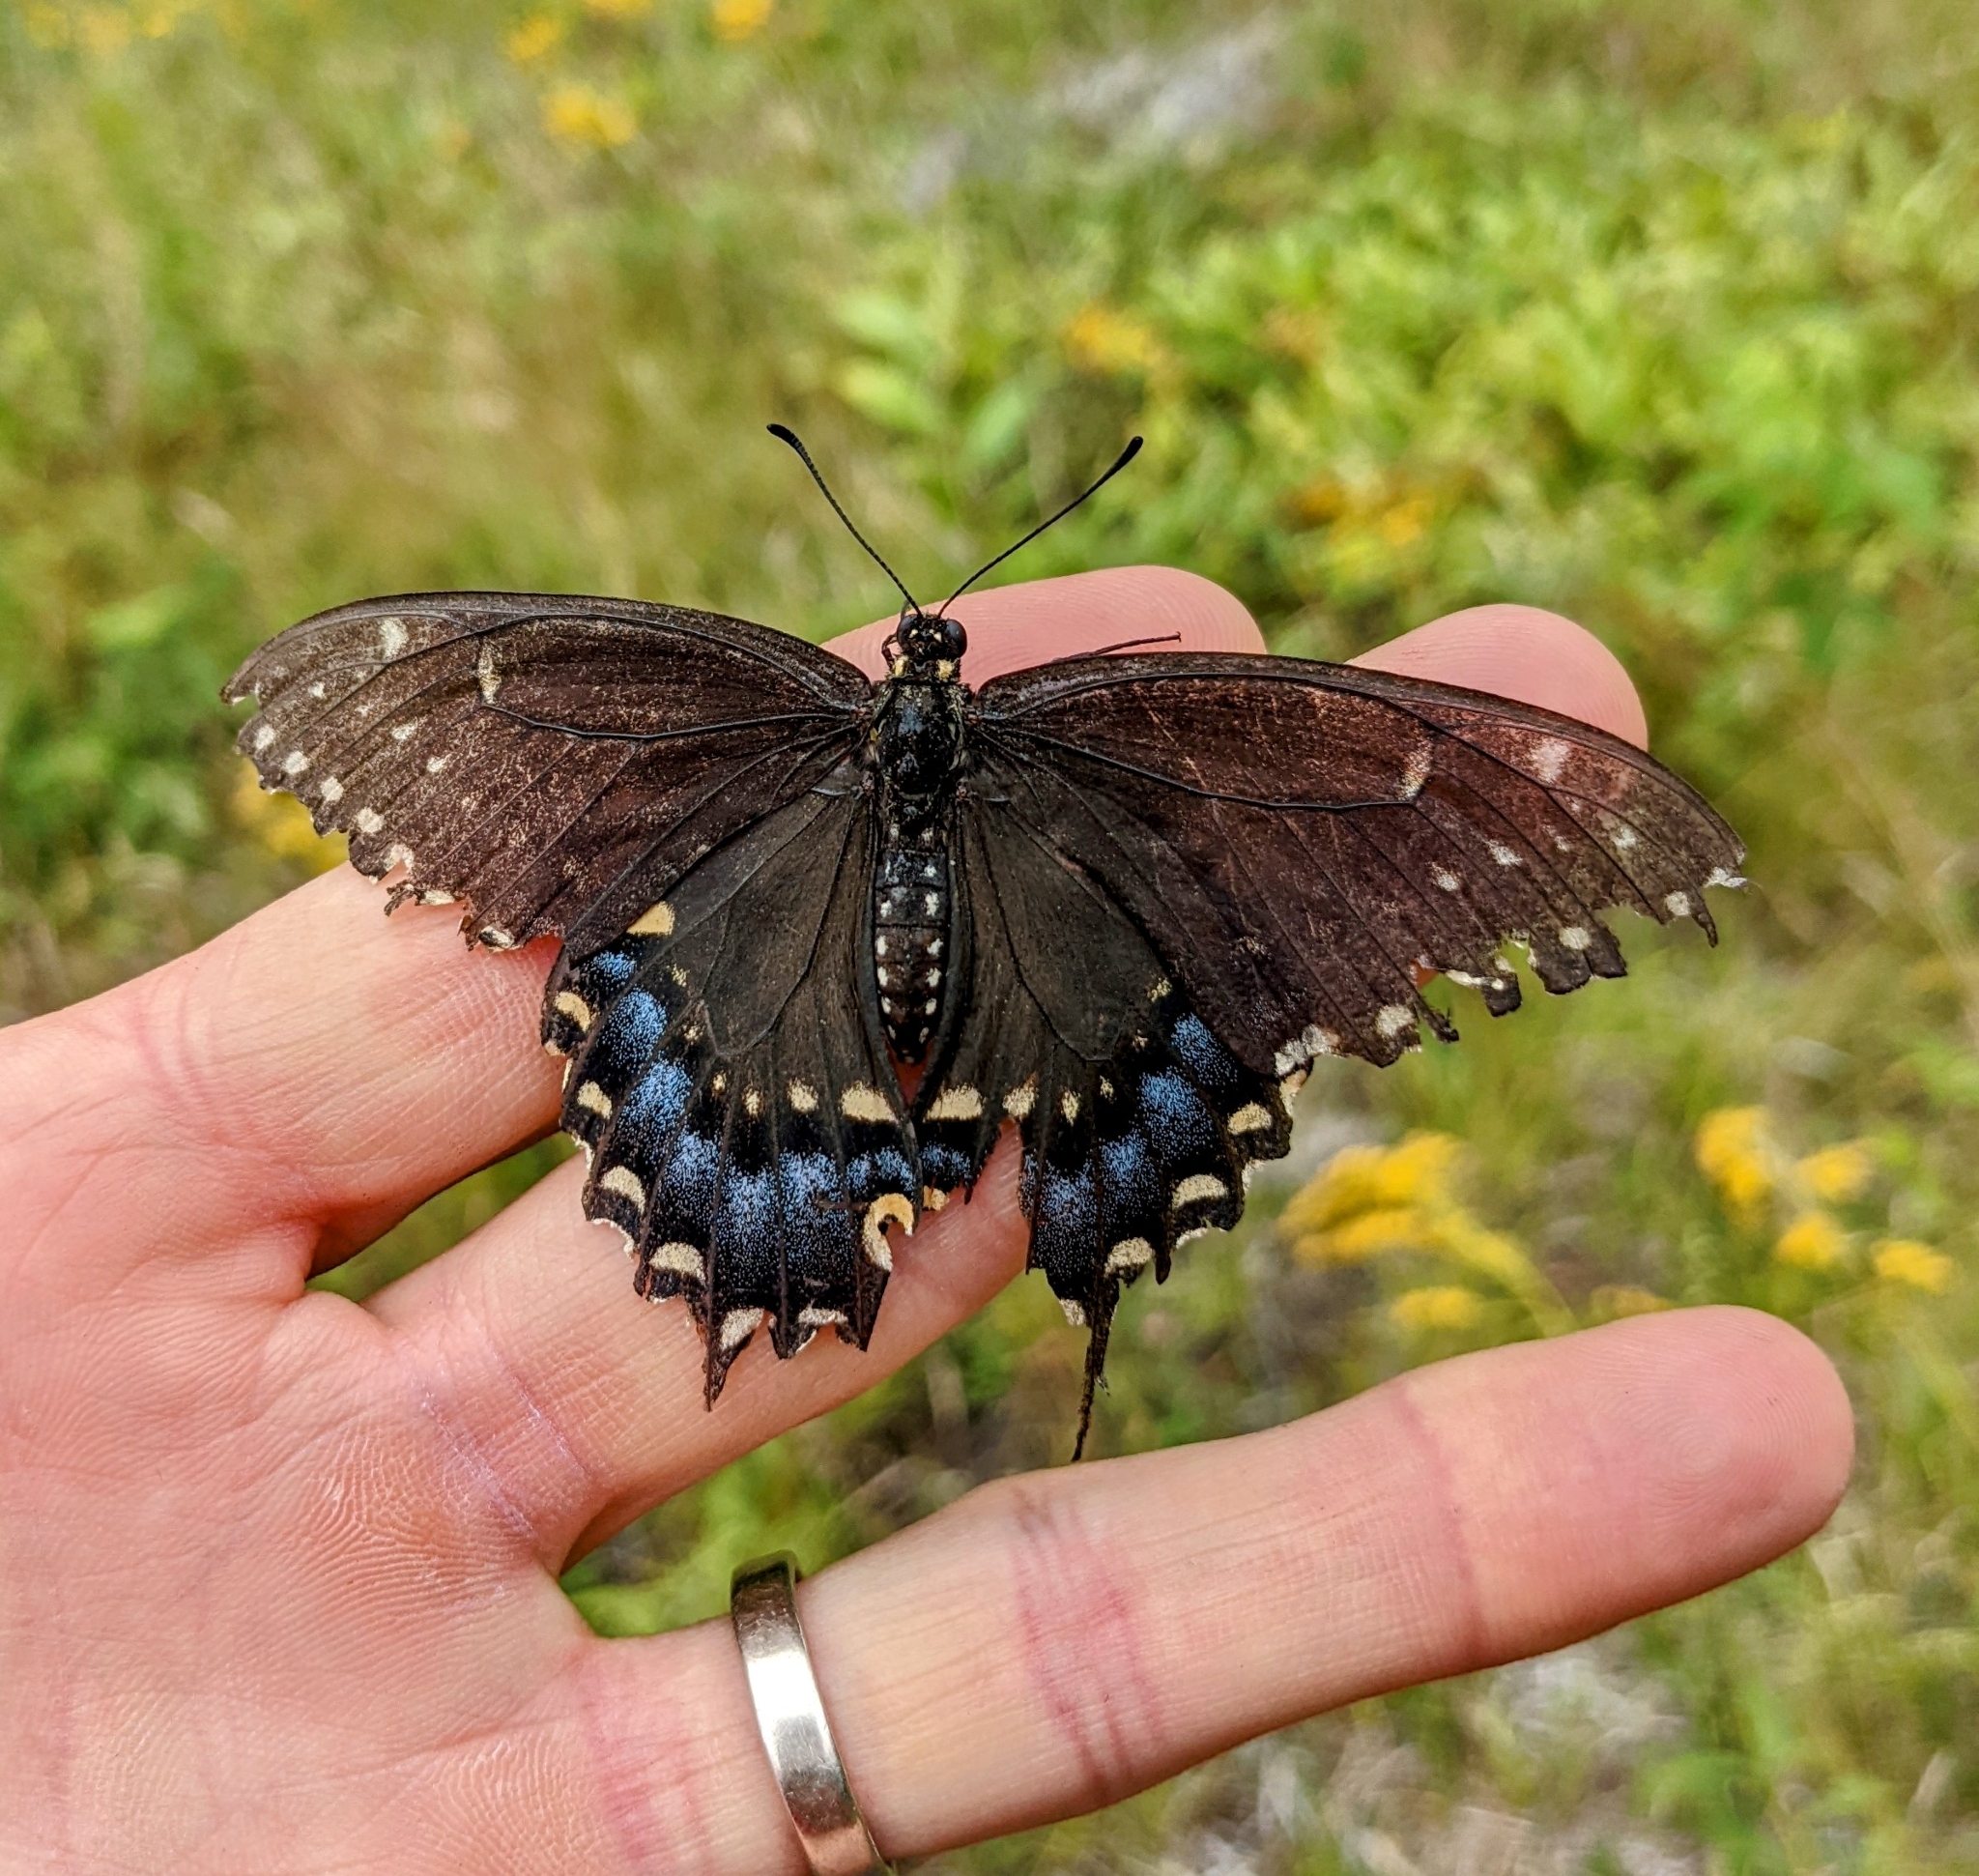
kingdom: Animalia
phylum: Arthropoda
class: Insecta
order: Lepidoptera
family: Papilionidae
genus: Papilio
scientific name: Papilio polyxenes
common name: Black swallowtail
